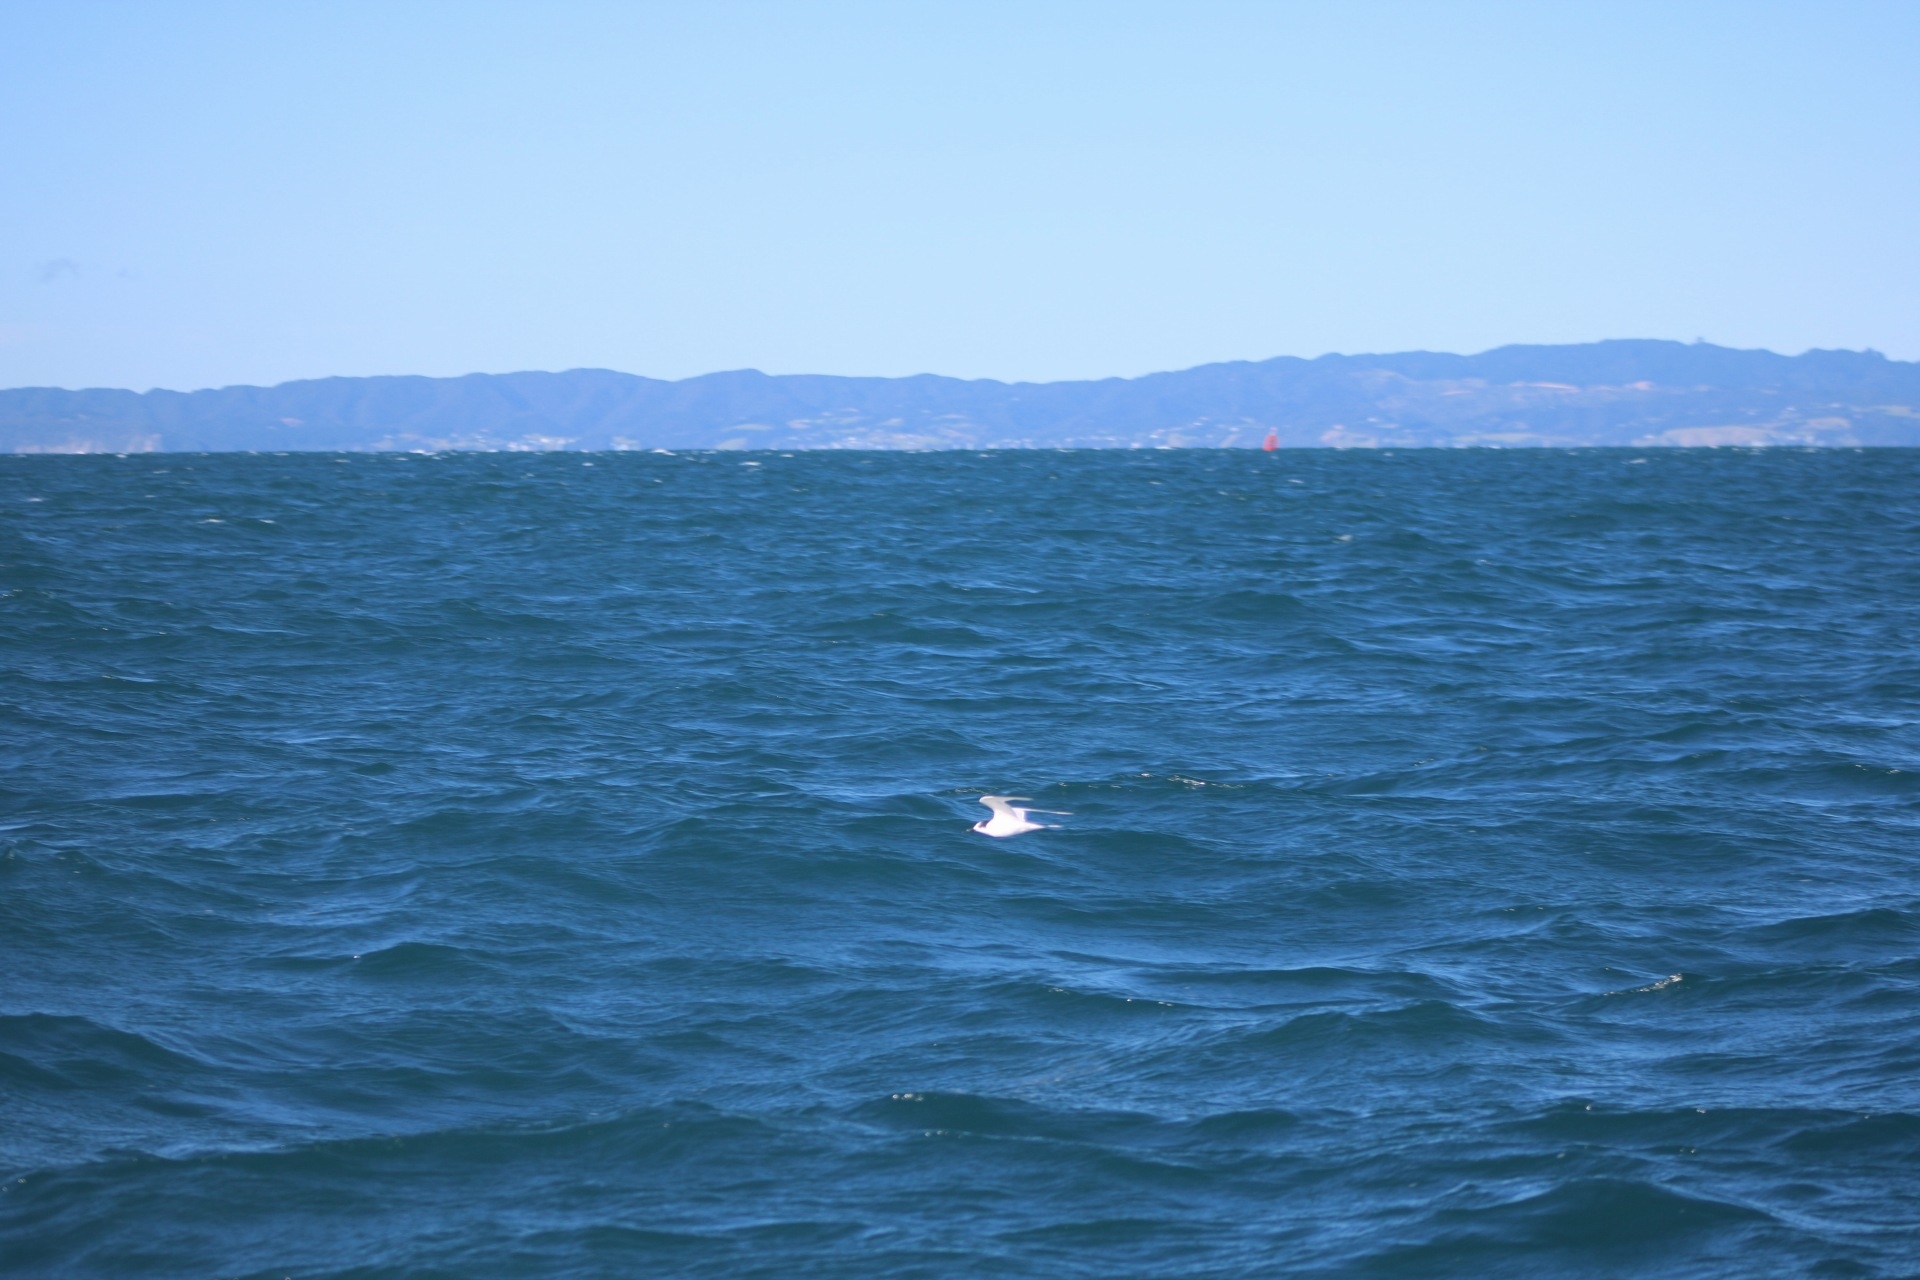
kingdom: Animalia
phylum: Chordata
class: Aves
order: Charadriiformes
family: Laridae
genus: Sterna
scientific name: Sterna striata
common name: White-fronted tern
